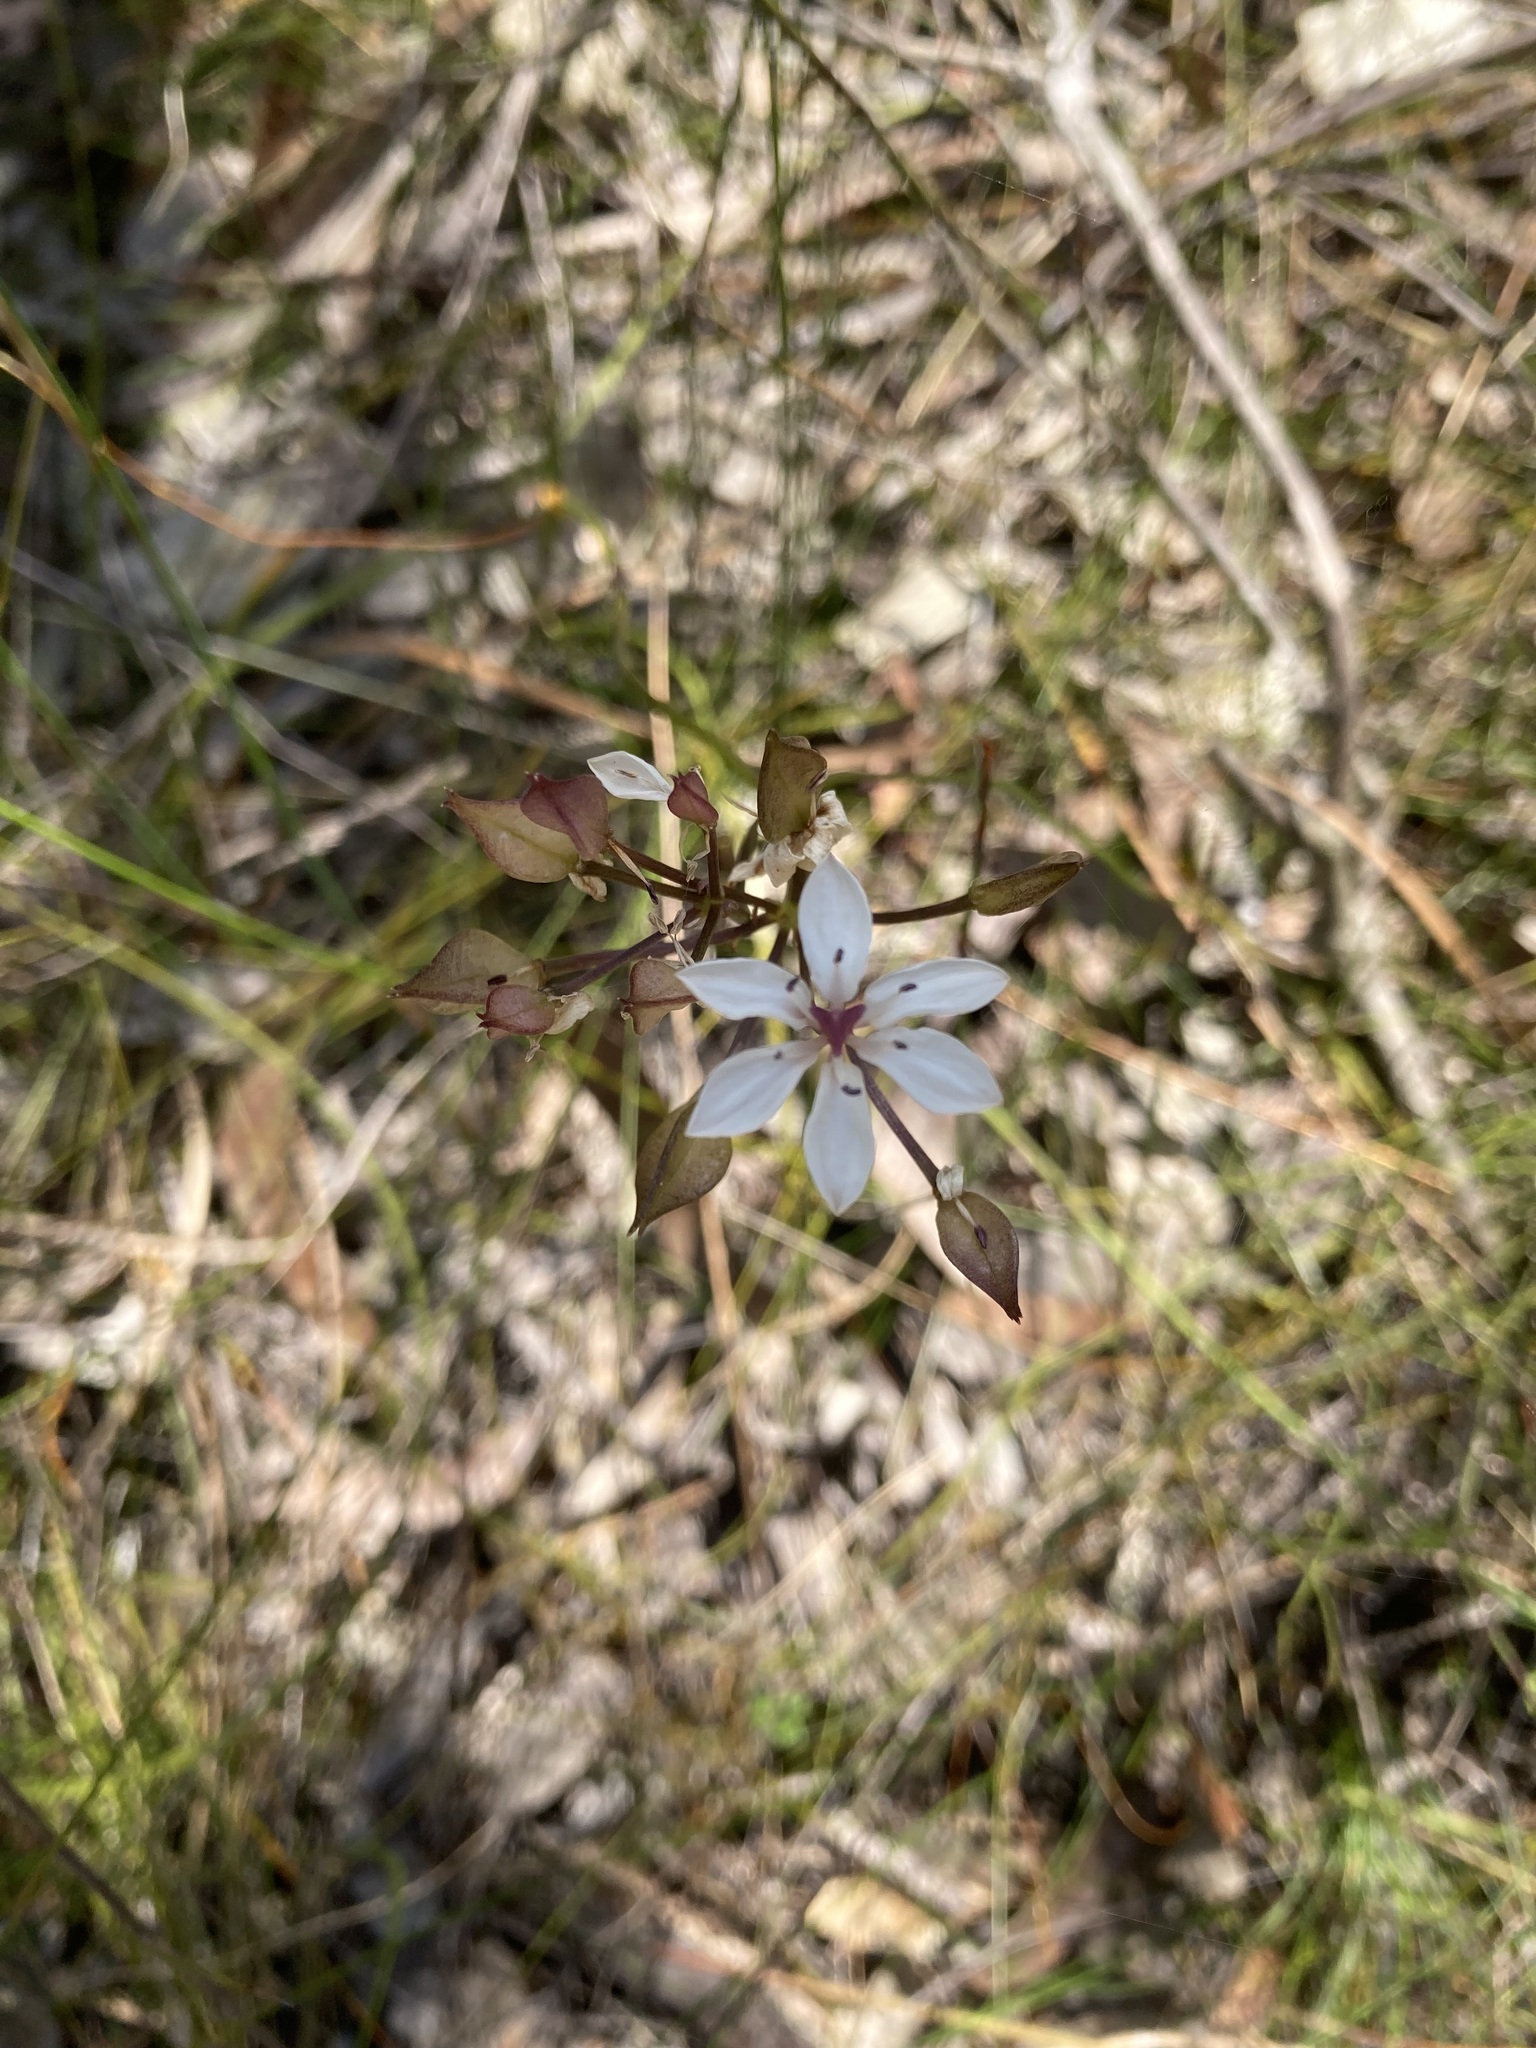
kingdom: Plantae
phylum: Tracheophyta
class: Liliopsida
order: Liliales
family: Colchicaceae
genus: Burchardia
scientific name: Burchardia umbellata
